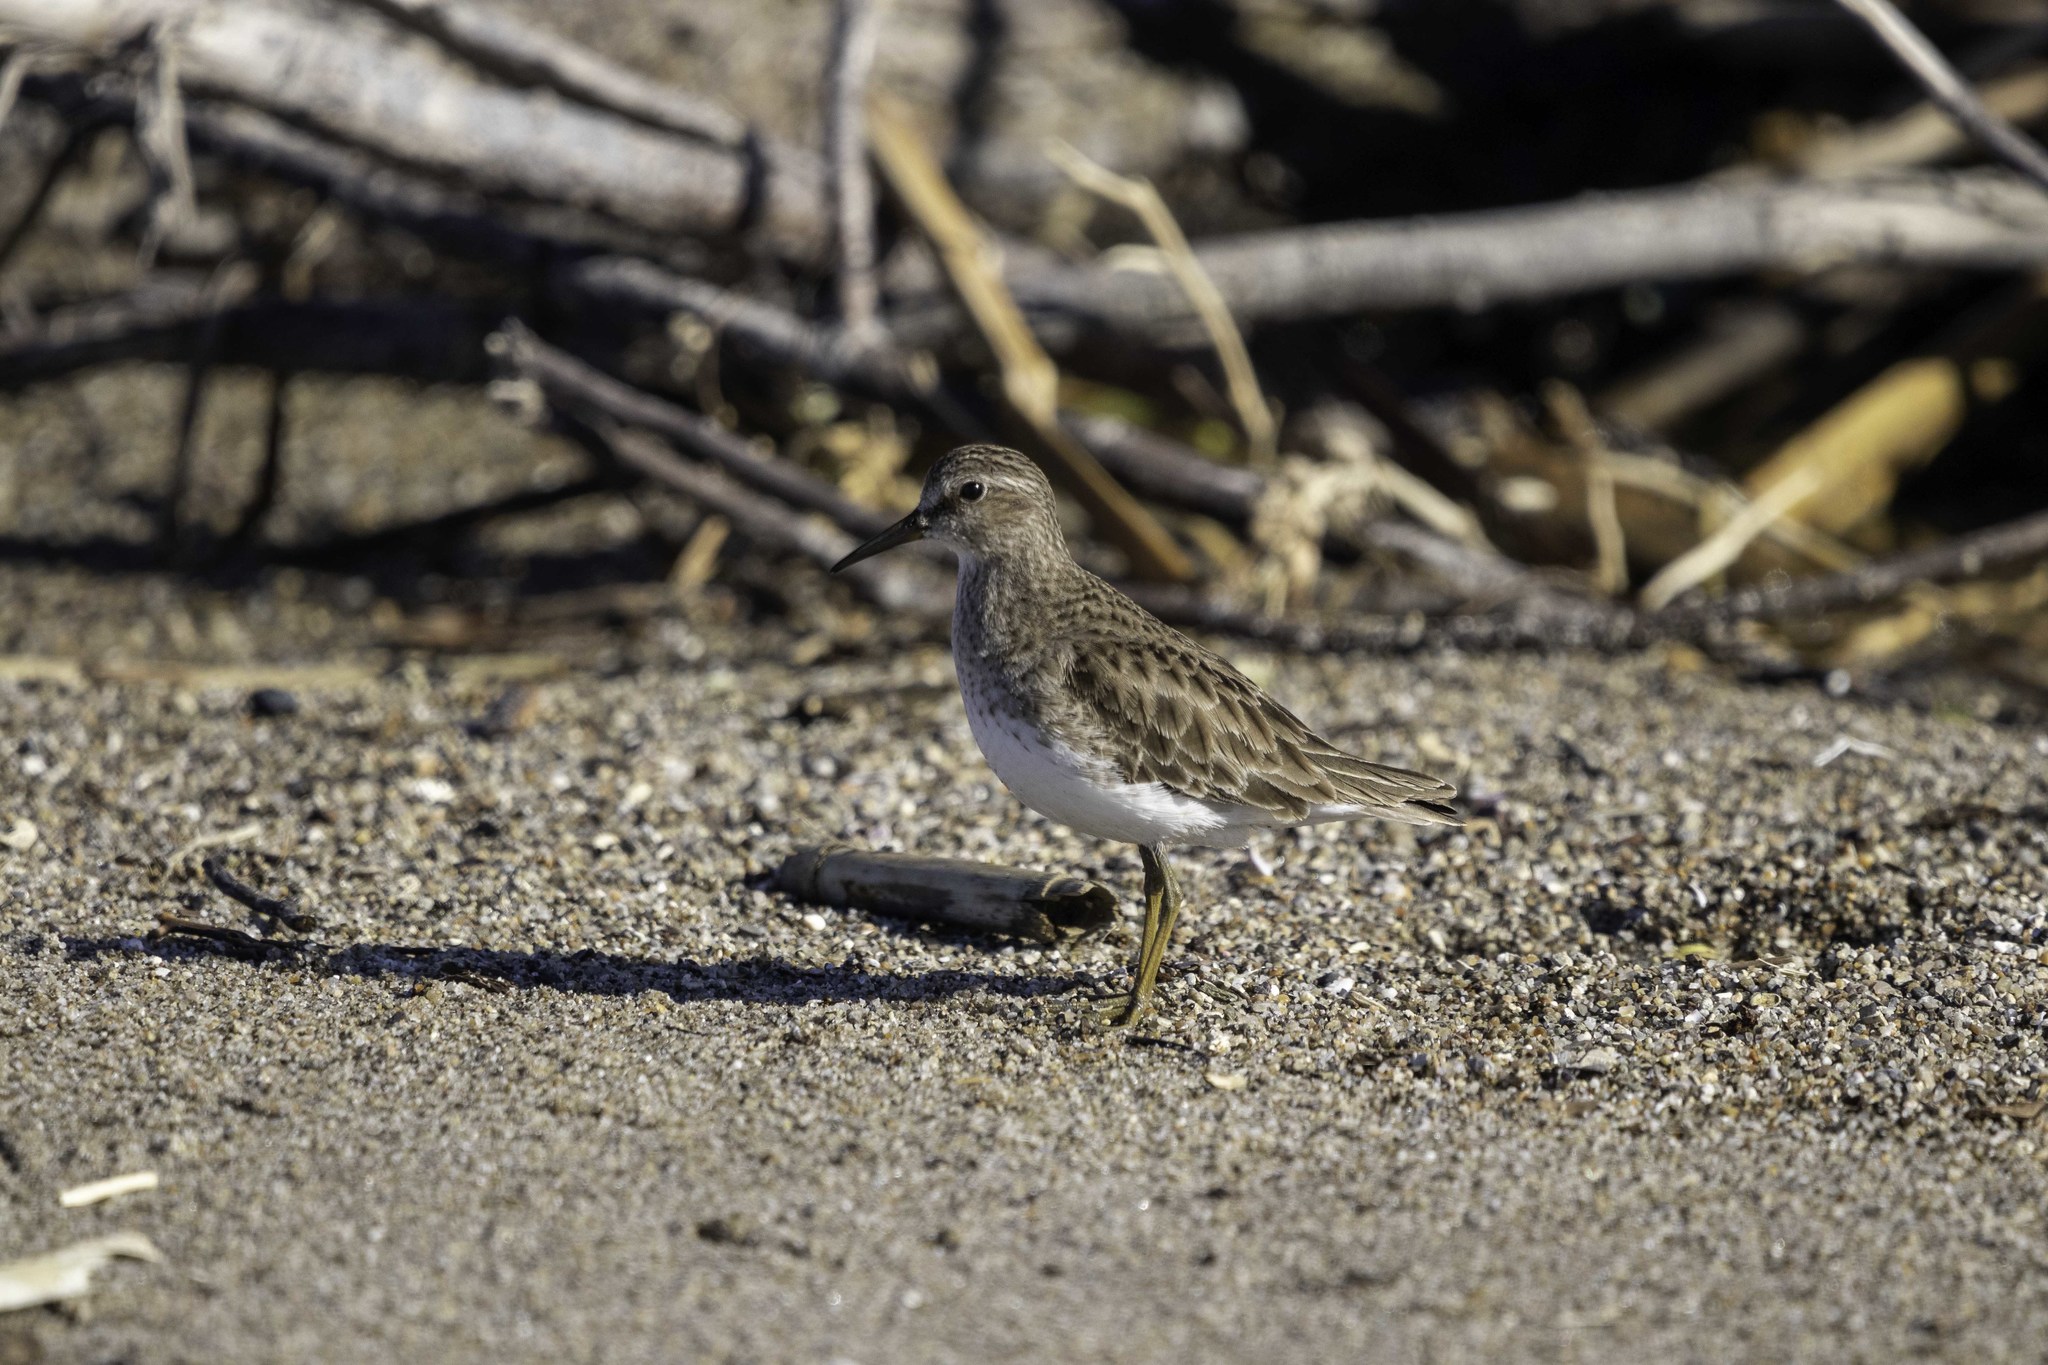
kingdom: Animalia
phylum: Chordata
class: Aves
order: Charadriiformes
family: Scolopacidae
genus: Calidris
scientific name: Calidris minutilla
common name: Least sandpiper
